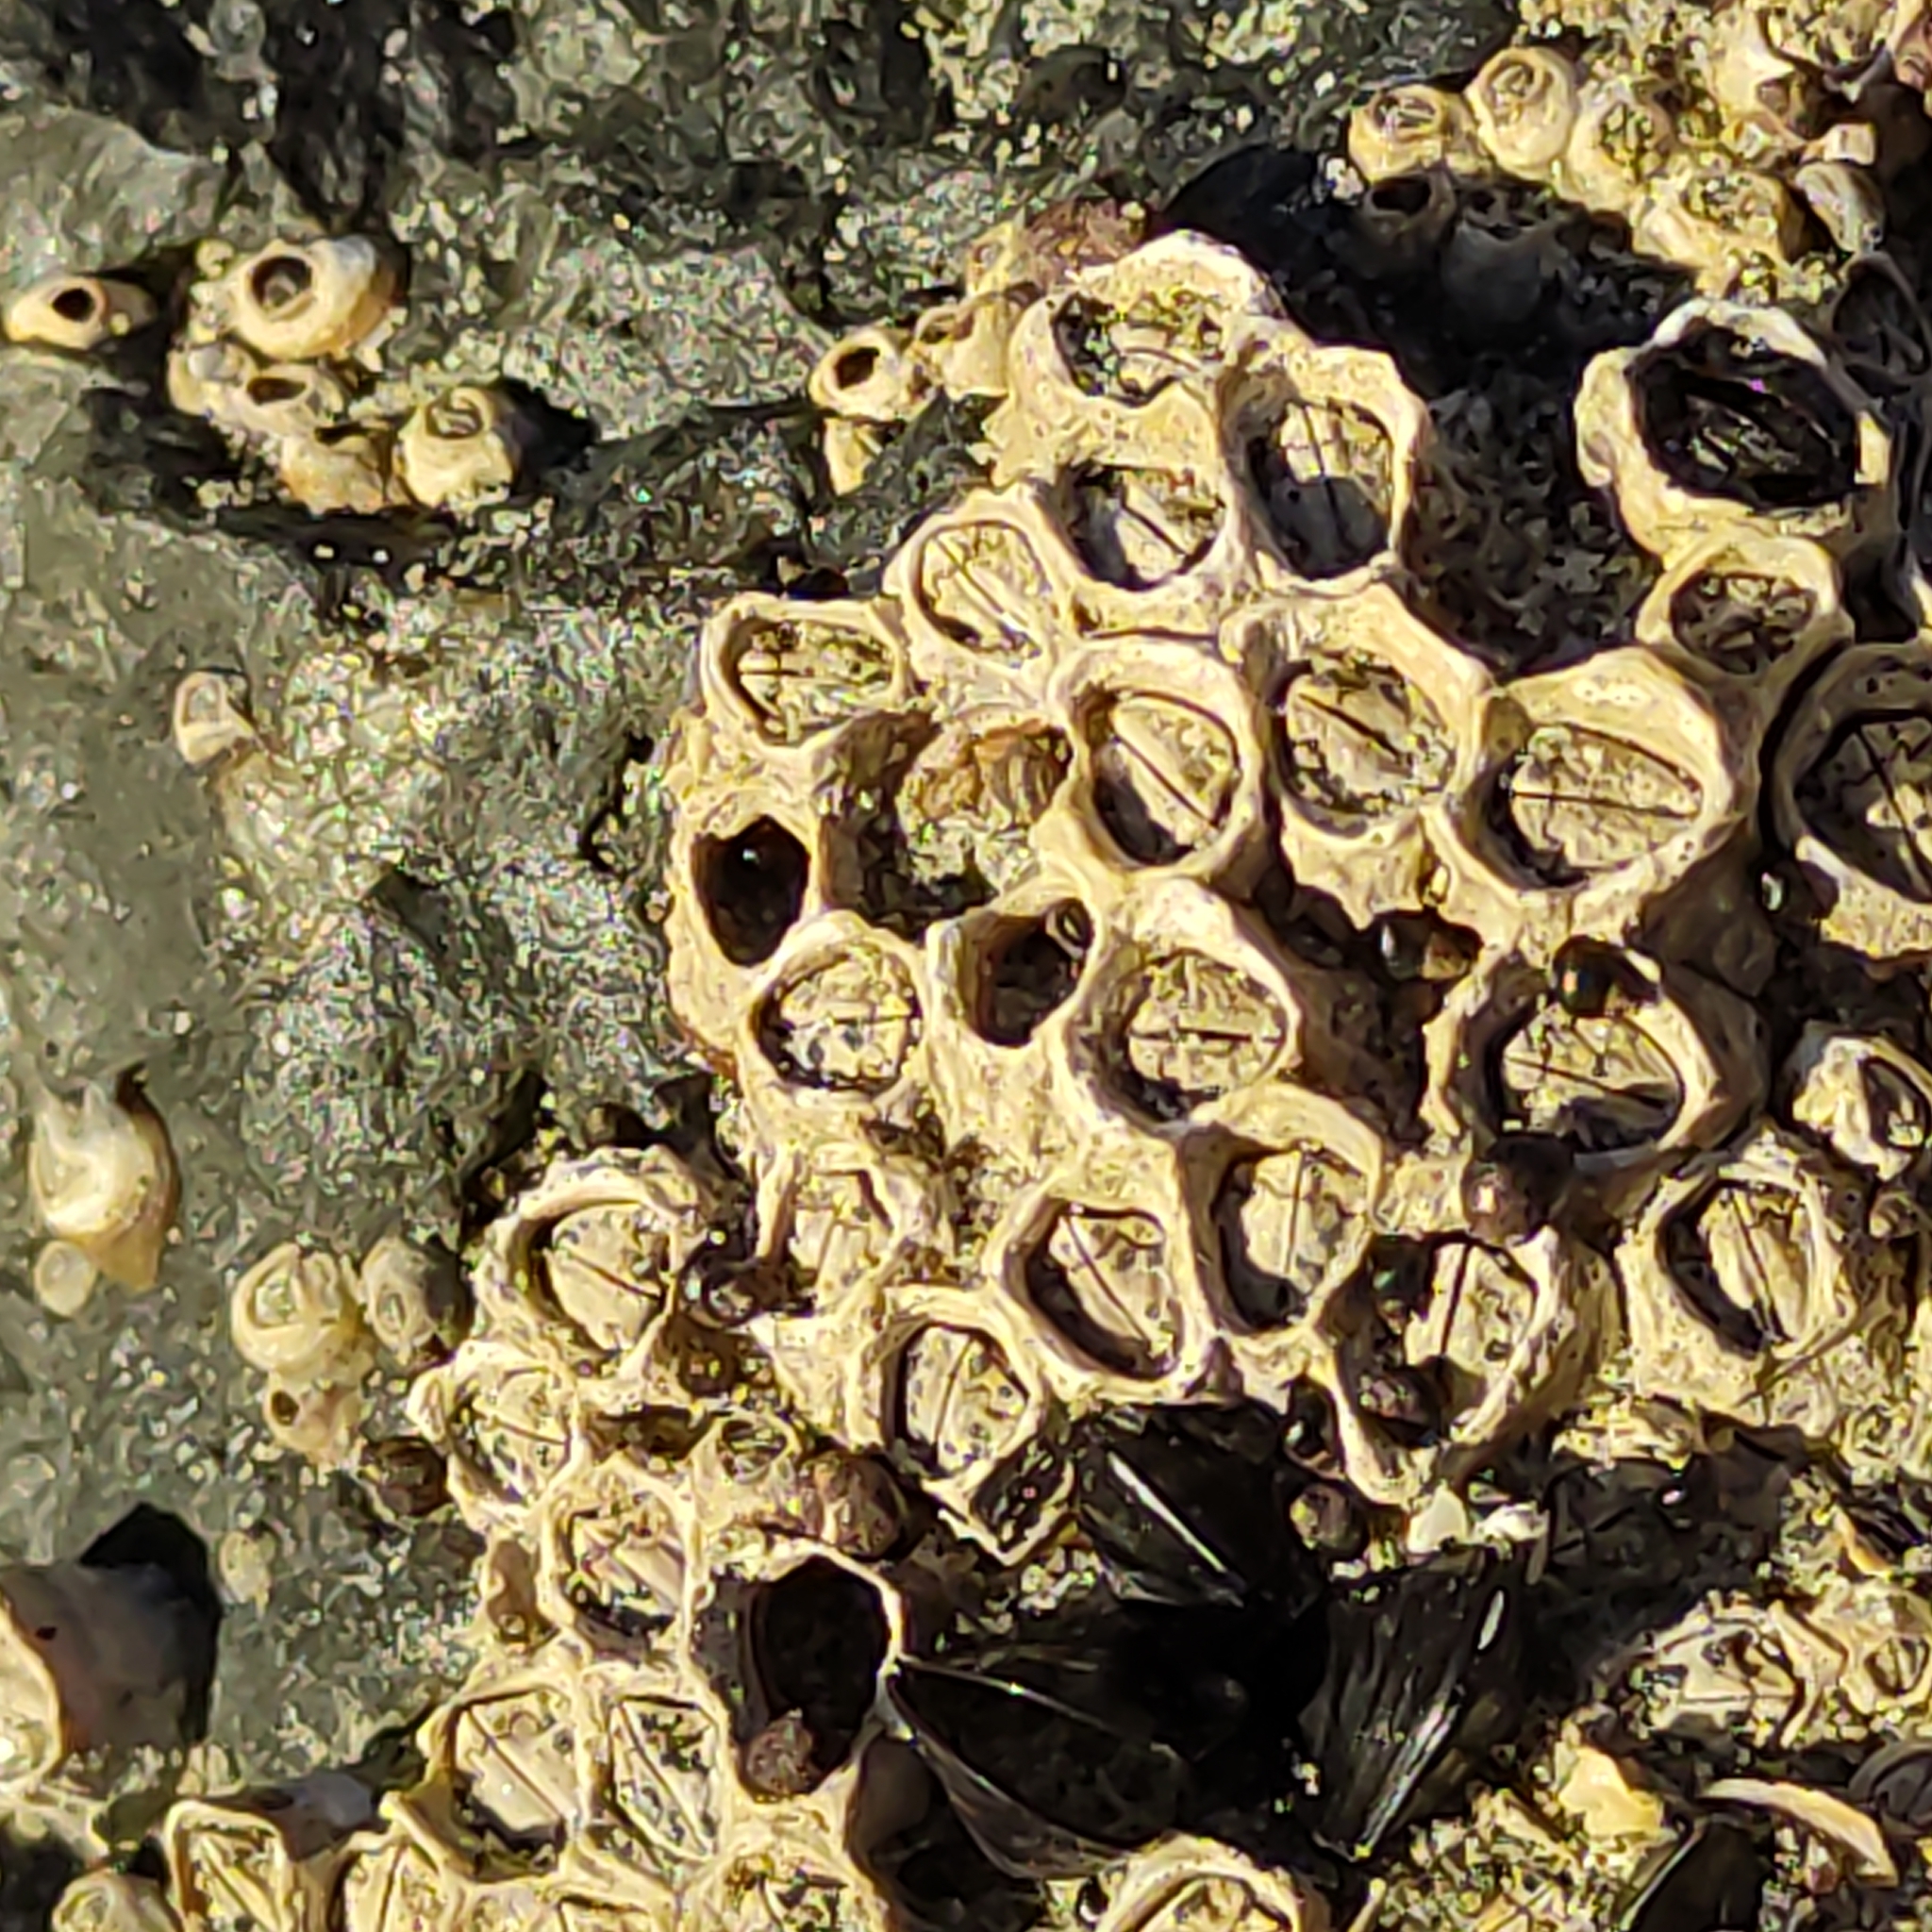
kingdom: Animalia
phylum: Arthropoda
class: Maxillopoda
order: Sessilia
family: Chthamalidae
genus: Chamaesipho
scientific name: Chamaesipho columna
